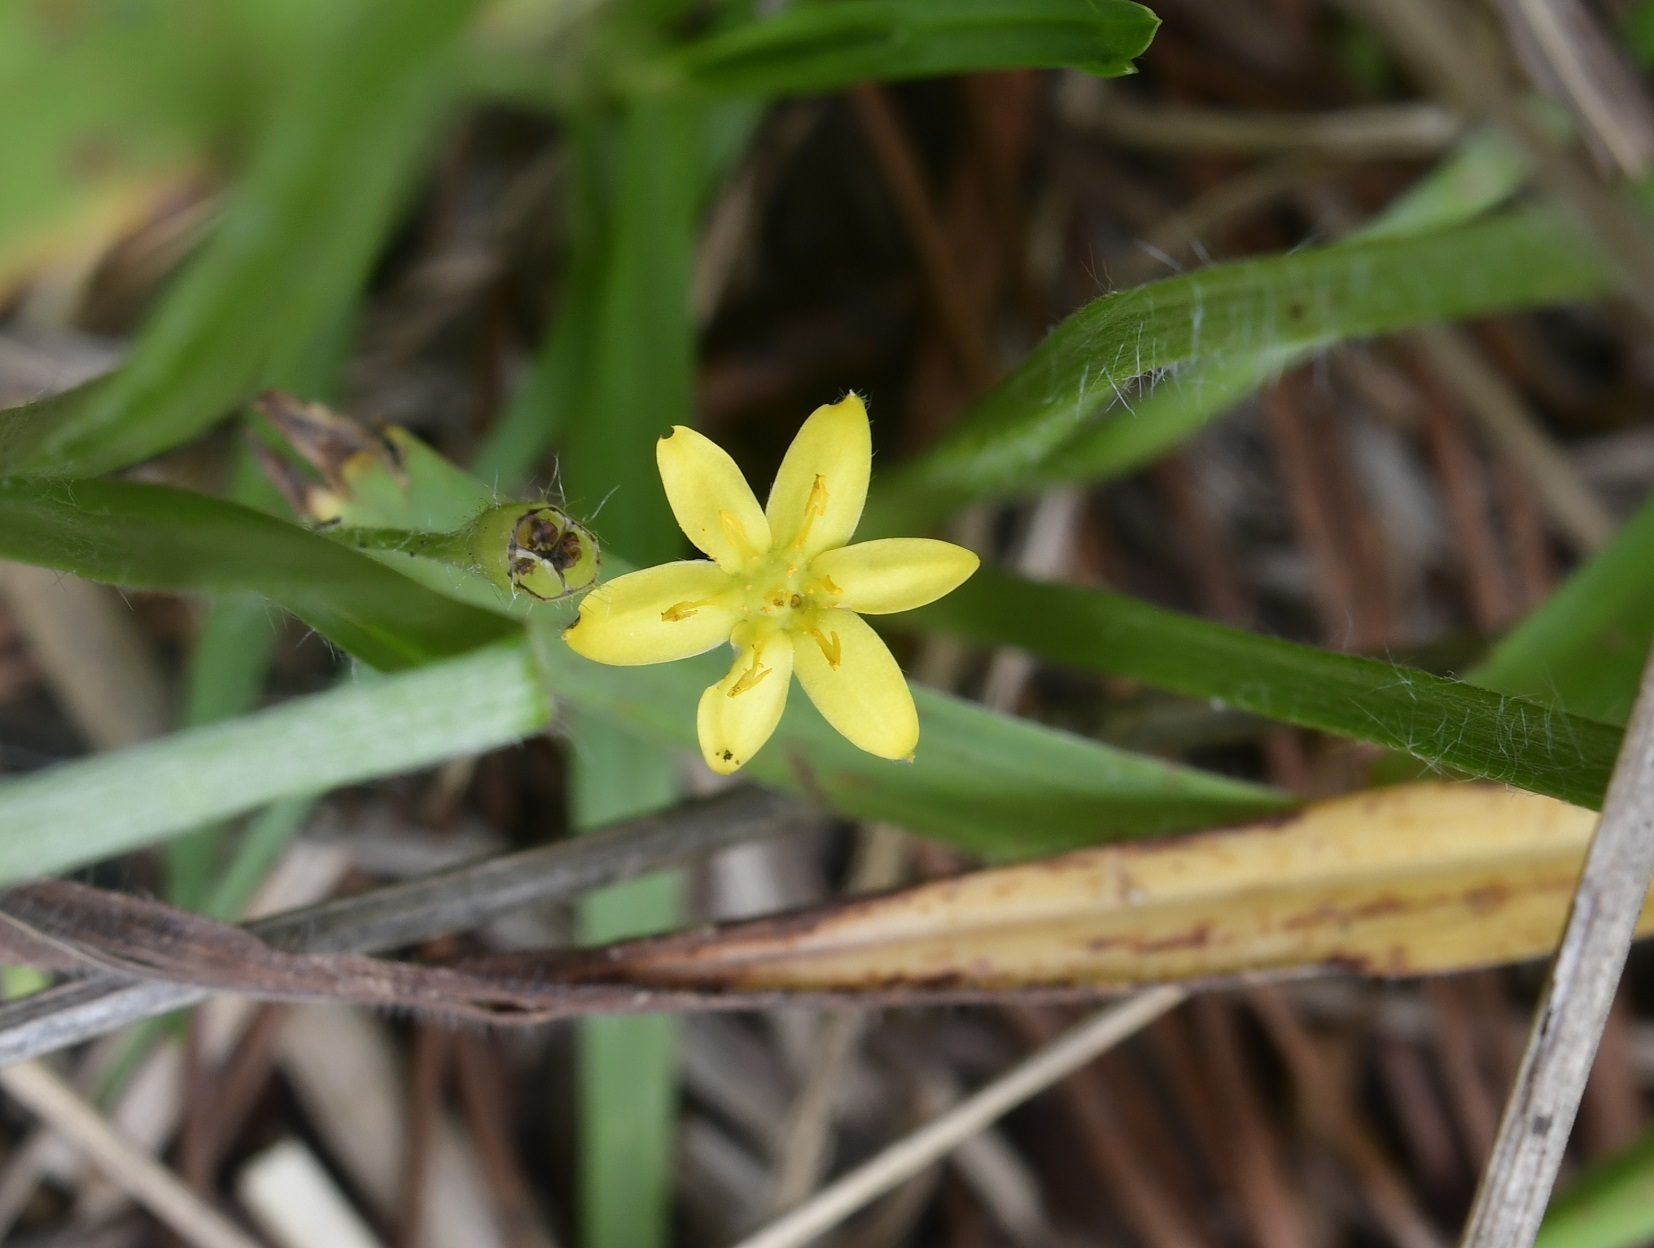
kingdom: Plantae
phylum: Tracheophyta
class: Liliopsida
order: Asparagales
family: Hypoxidaceae
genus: Hypoxis
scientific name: Hypoxis decumbens
